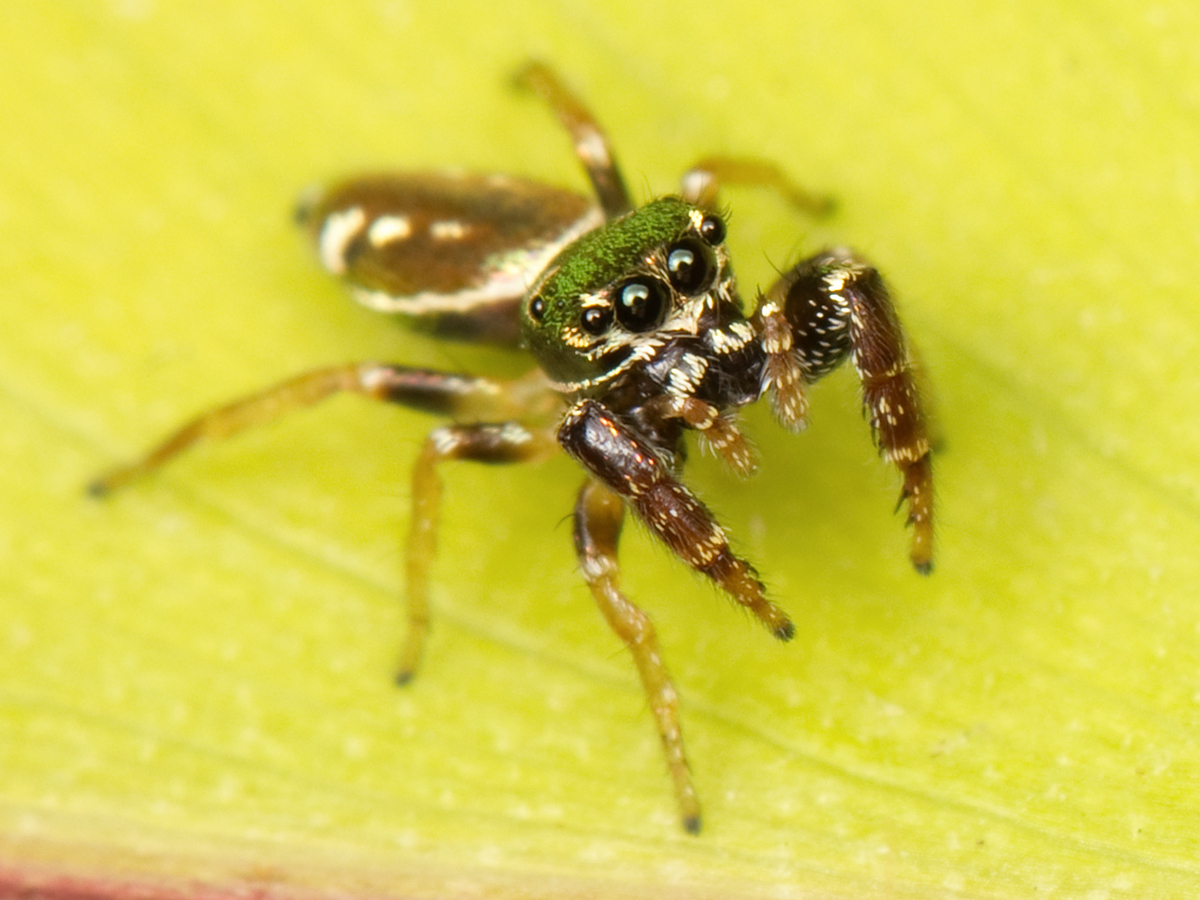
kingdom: Animalia
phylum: Arthropoda
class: Arachnida
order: Araneae
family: Salticidae
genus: Sassacus
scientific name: Sassacus vitis
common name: Jumping spiders
